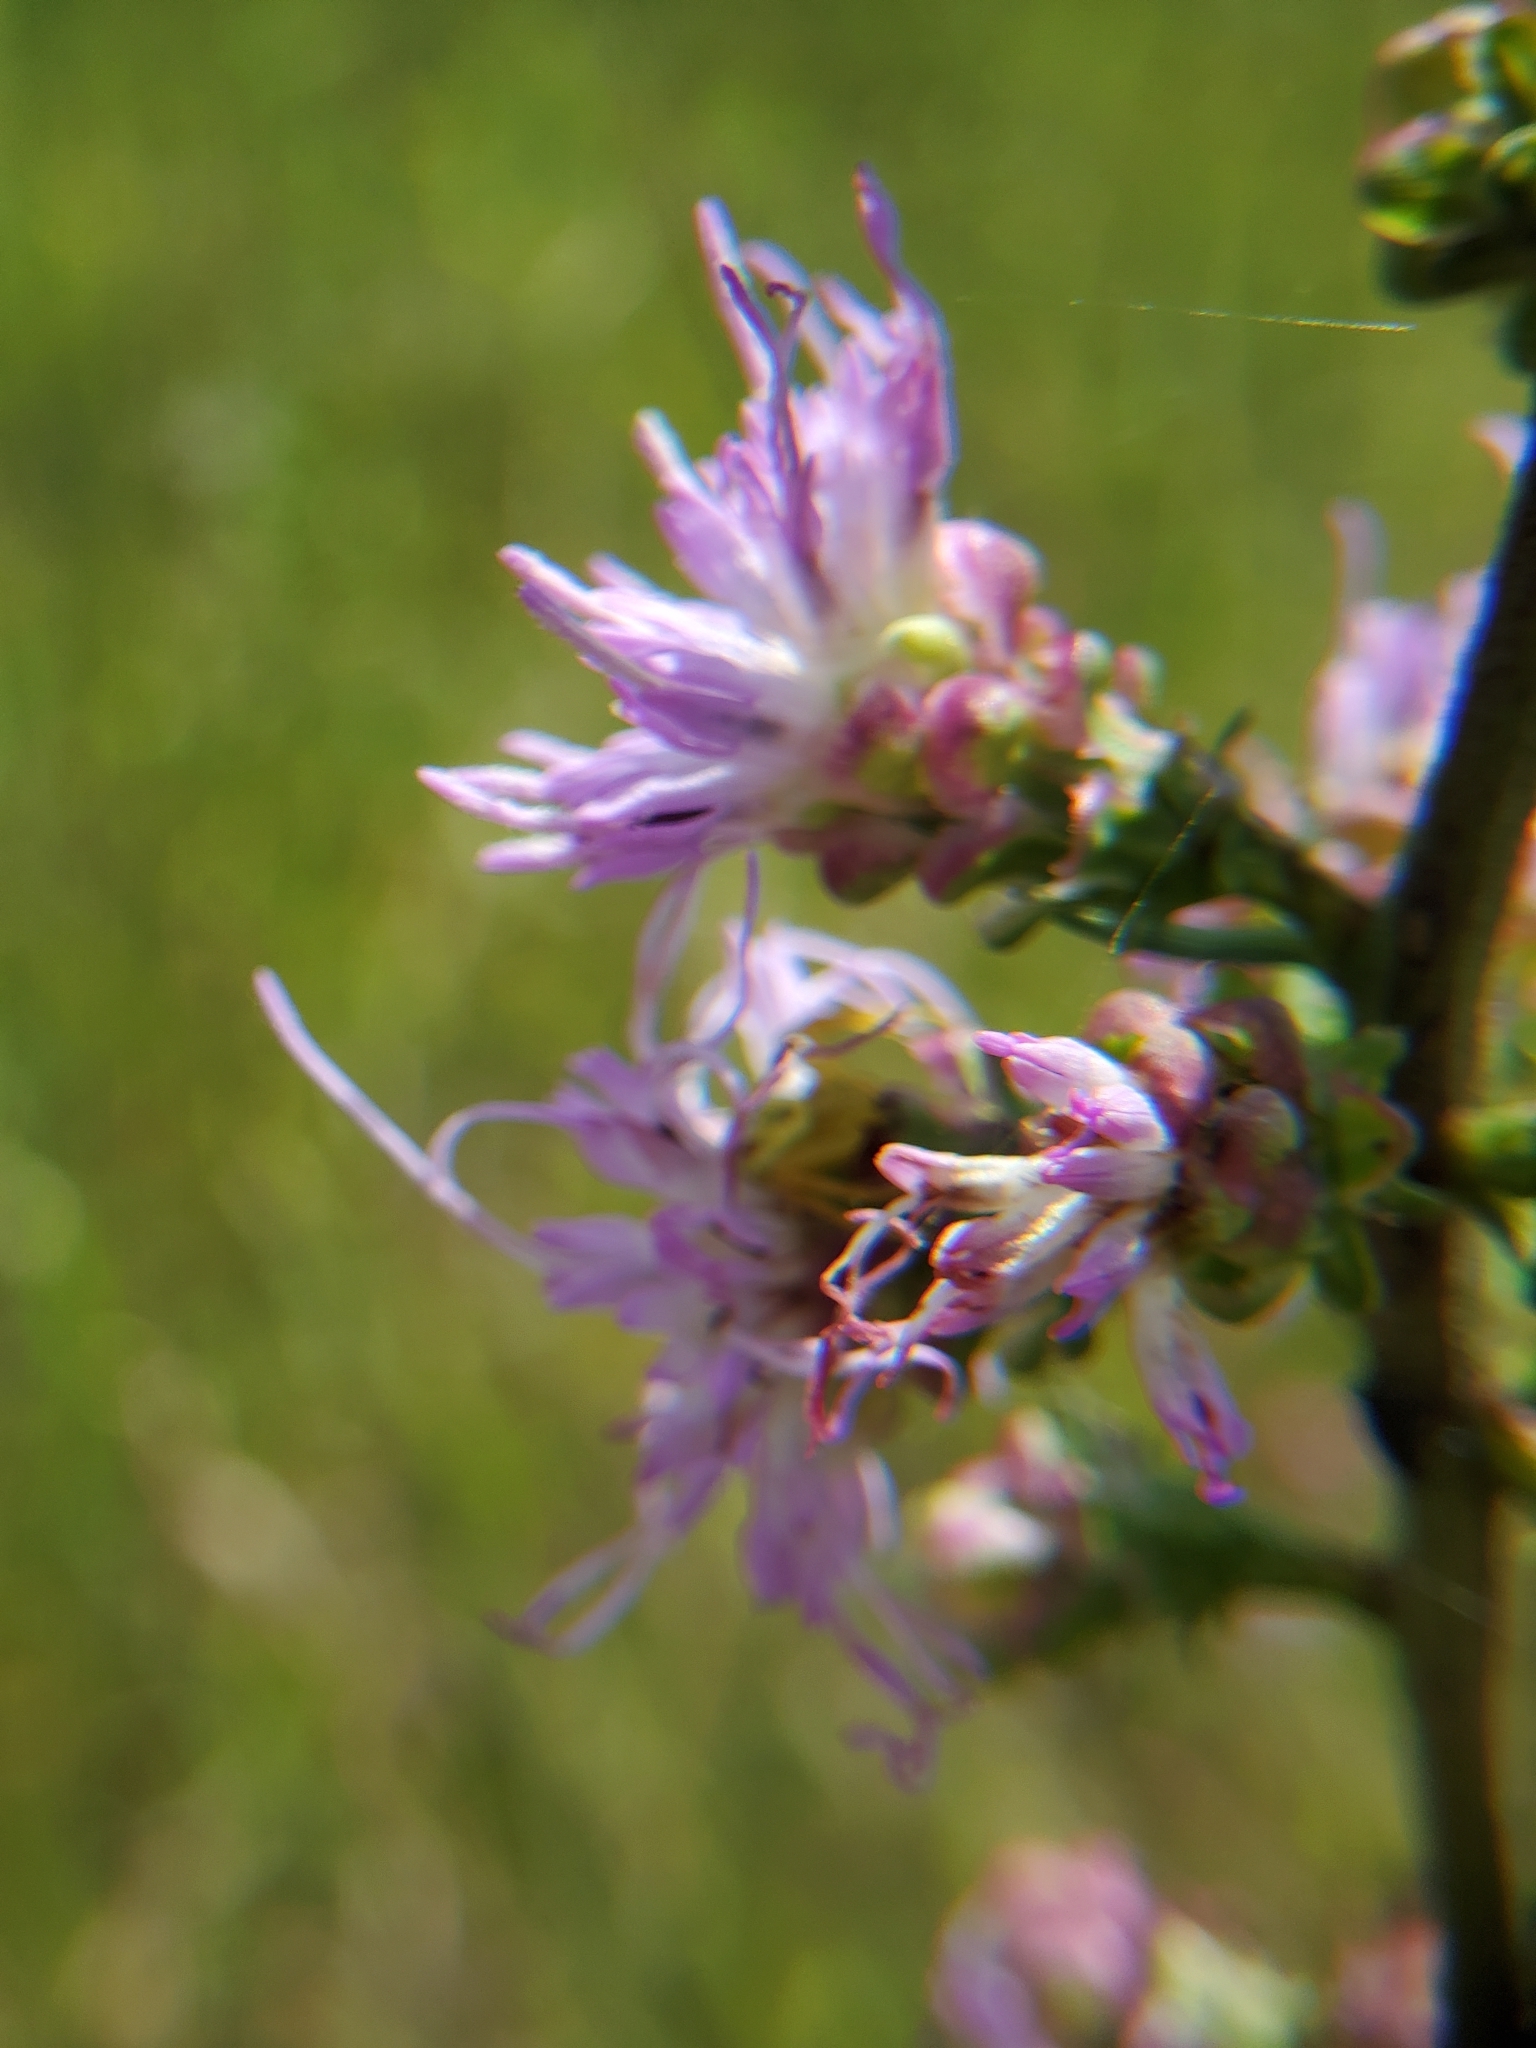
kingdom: Plantae
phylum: Tracheophyta
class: Magnoliopsida
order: Asterales
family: Asteraceae
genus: Liatris
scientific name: Liatris aspera
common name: Lacerate blazing-star
